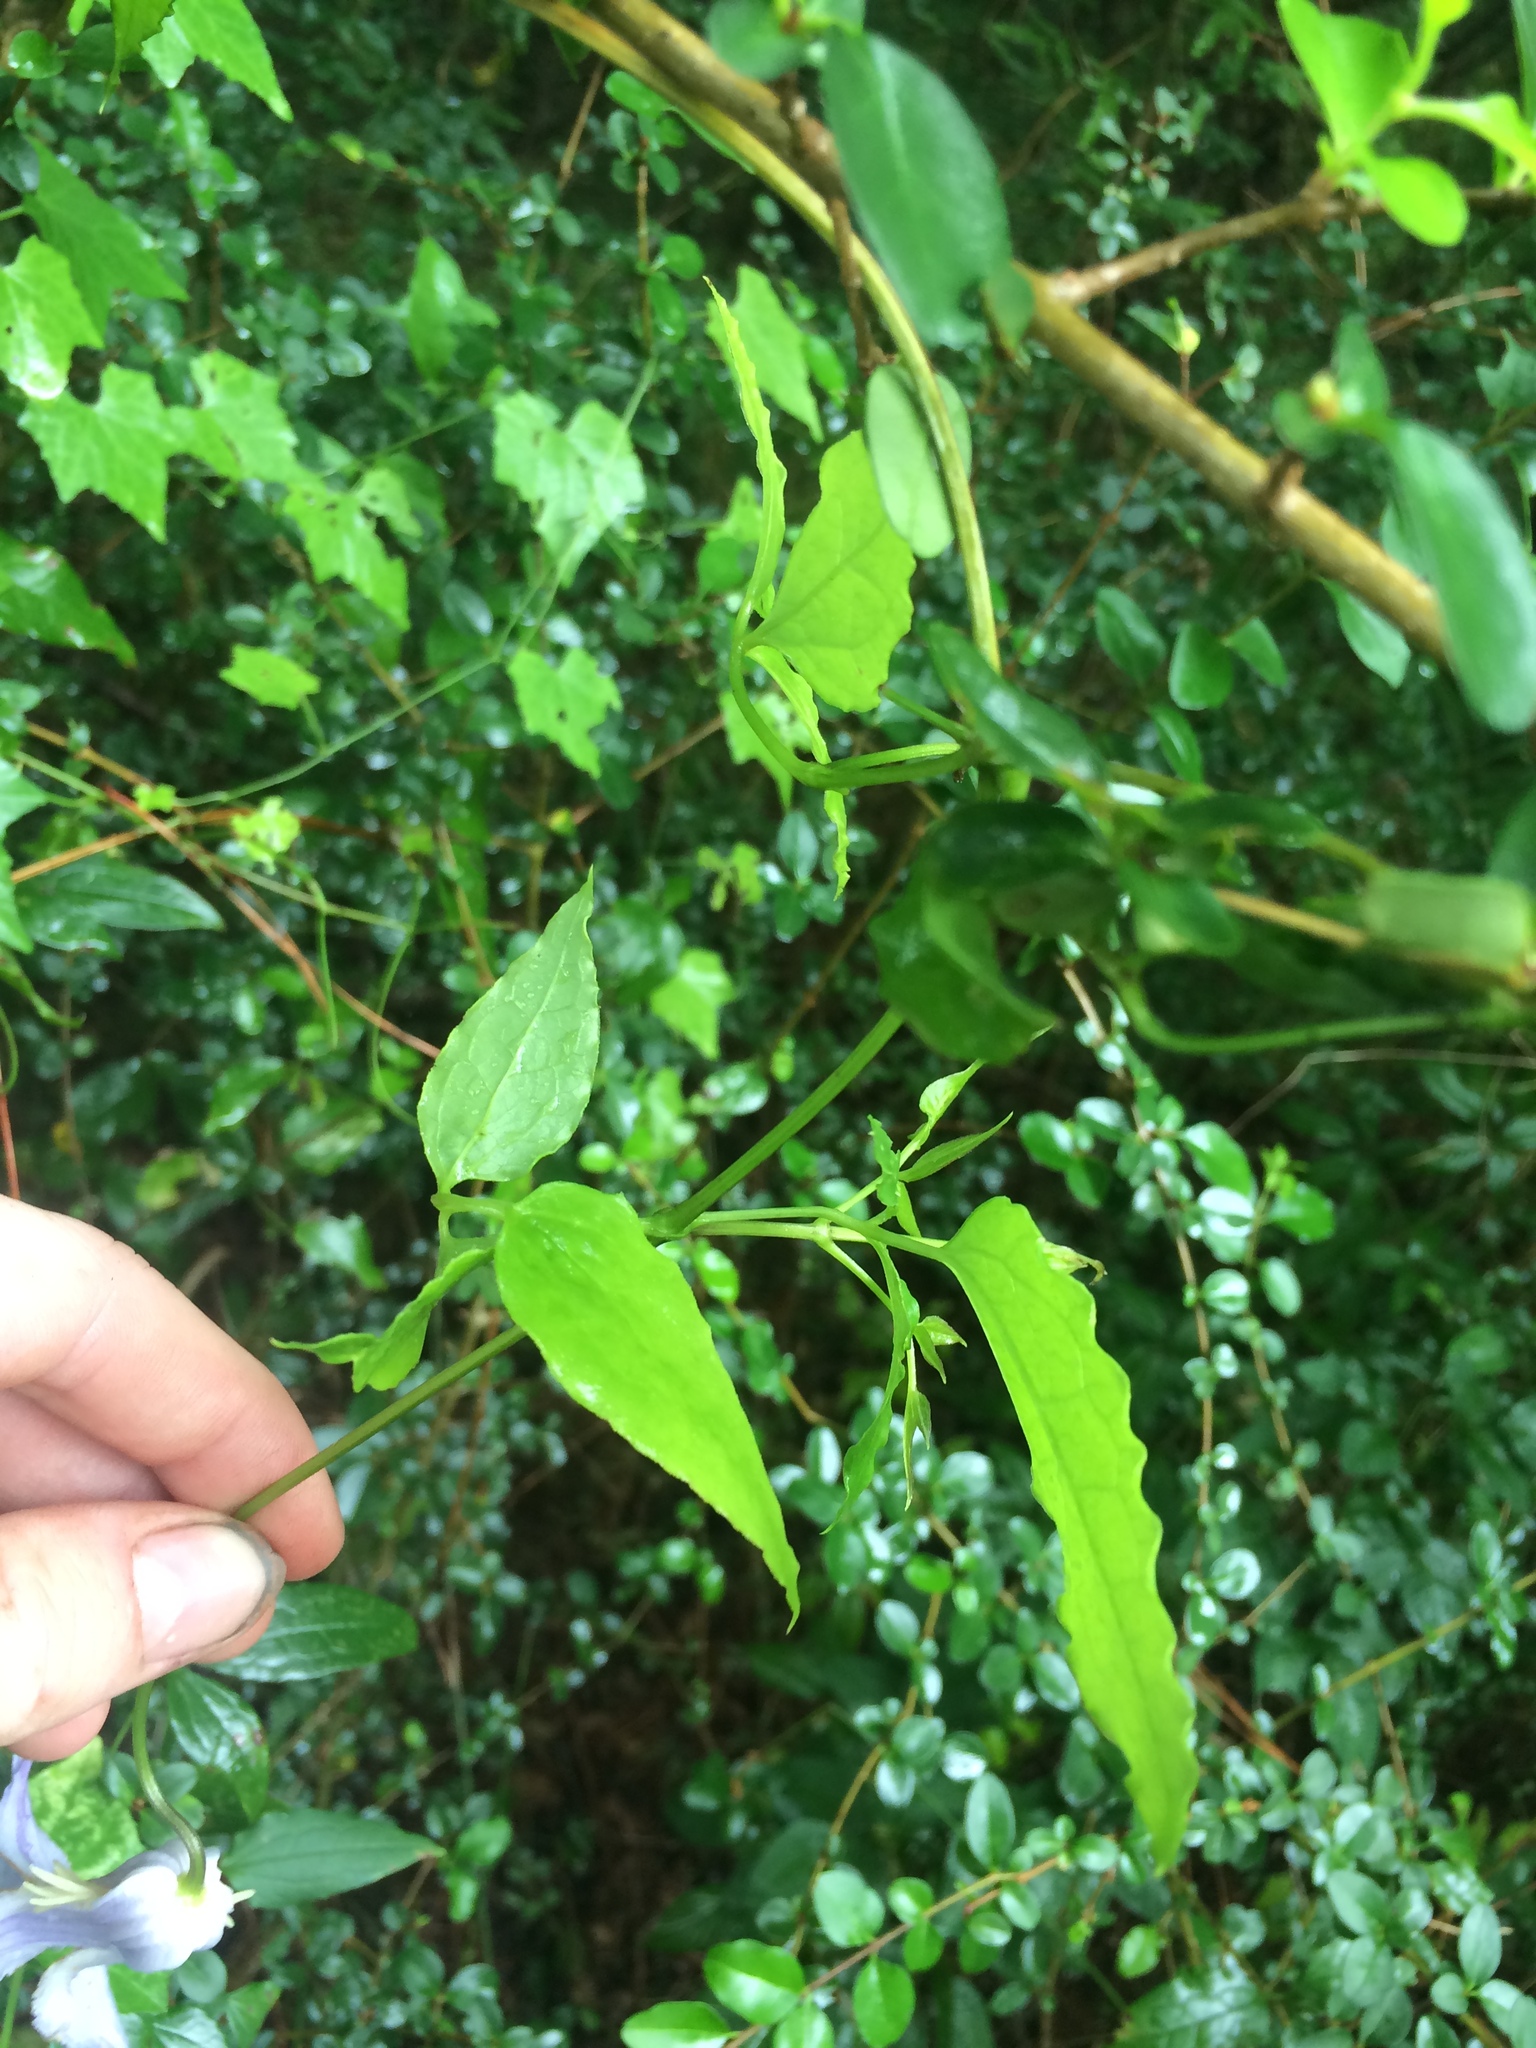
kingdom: Plantae
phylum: Tracheophyta
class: Magnoliopsida
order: Ranunculales
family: Ranunculaceae
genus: Clematis
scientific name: Clematis crispa
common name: Curly clematis
